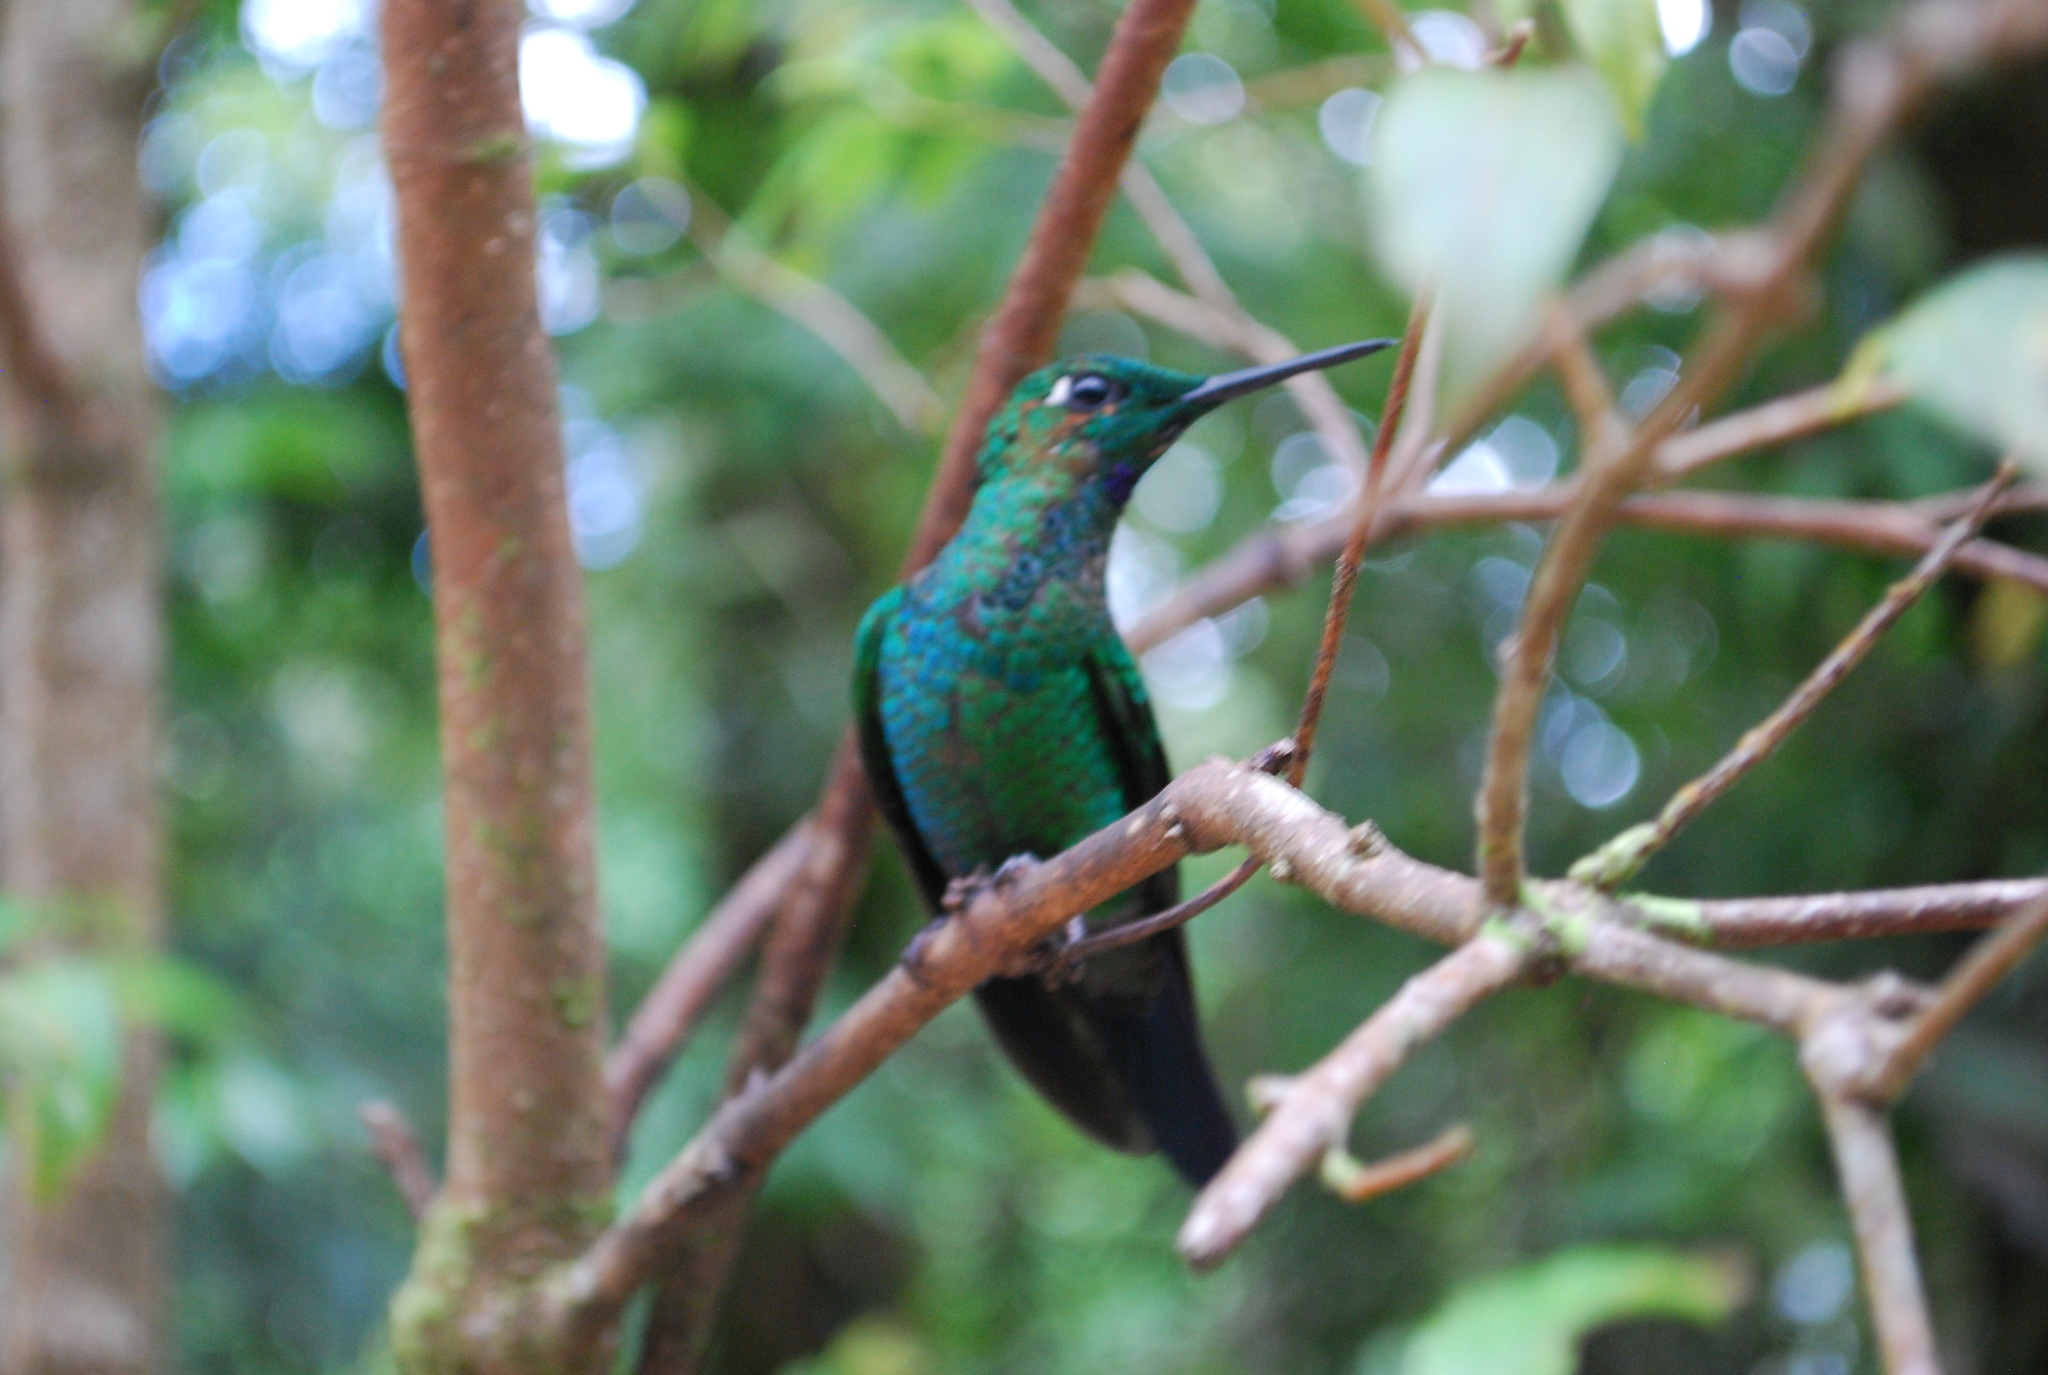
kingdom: Animalia
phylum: Chordata
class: Aves
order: Apodiformes
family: Trochilidae
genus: Heliodoxa
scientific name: Heliodoxa jacula
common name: Green-crowned brilliant
